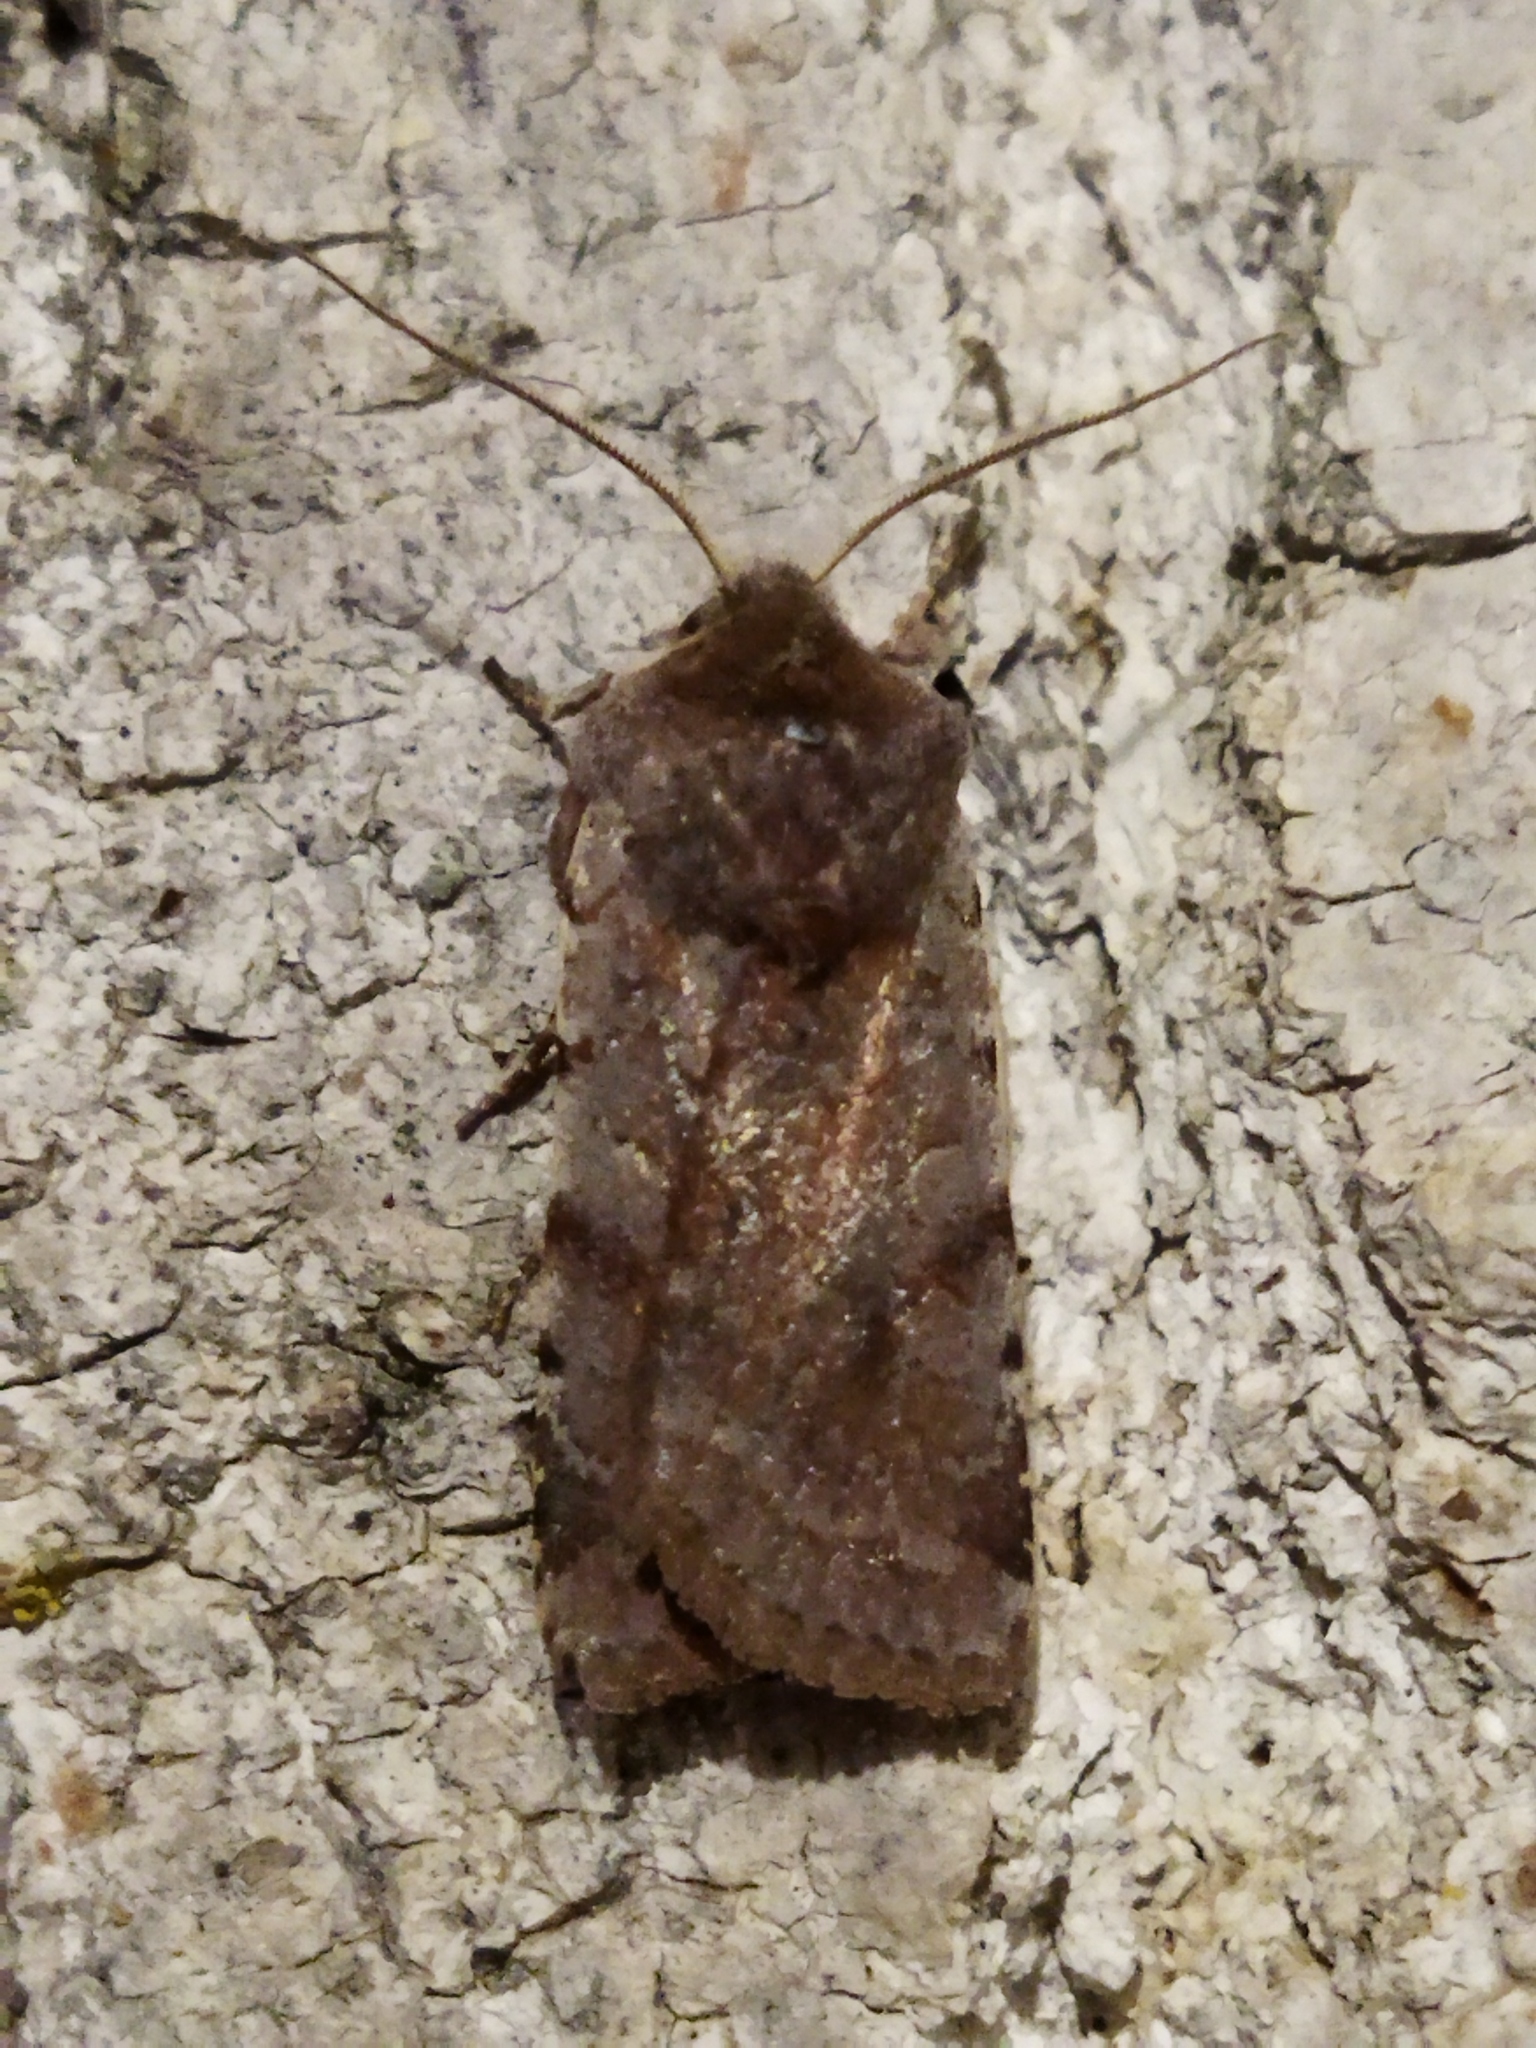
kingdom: Animalia
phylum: Arthropoda
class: Insecta
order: Lepidoptera
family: Noctuidae
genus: Cerastis
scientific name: Cerastis rubricosa
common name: Red chestnut
